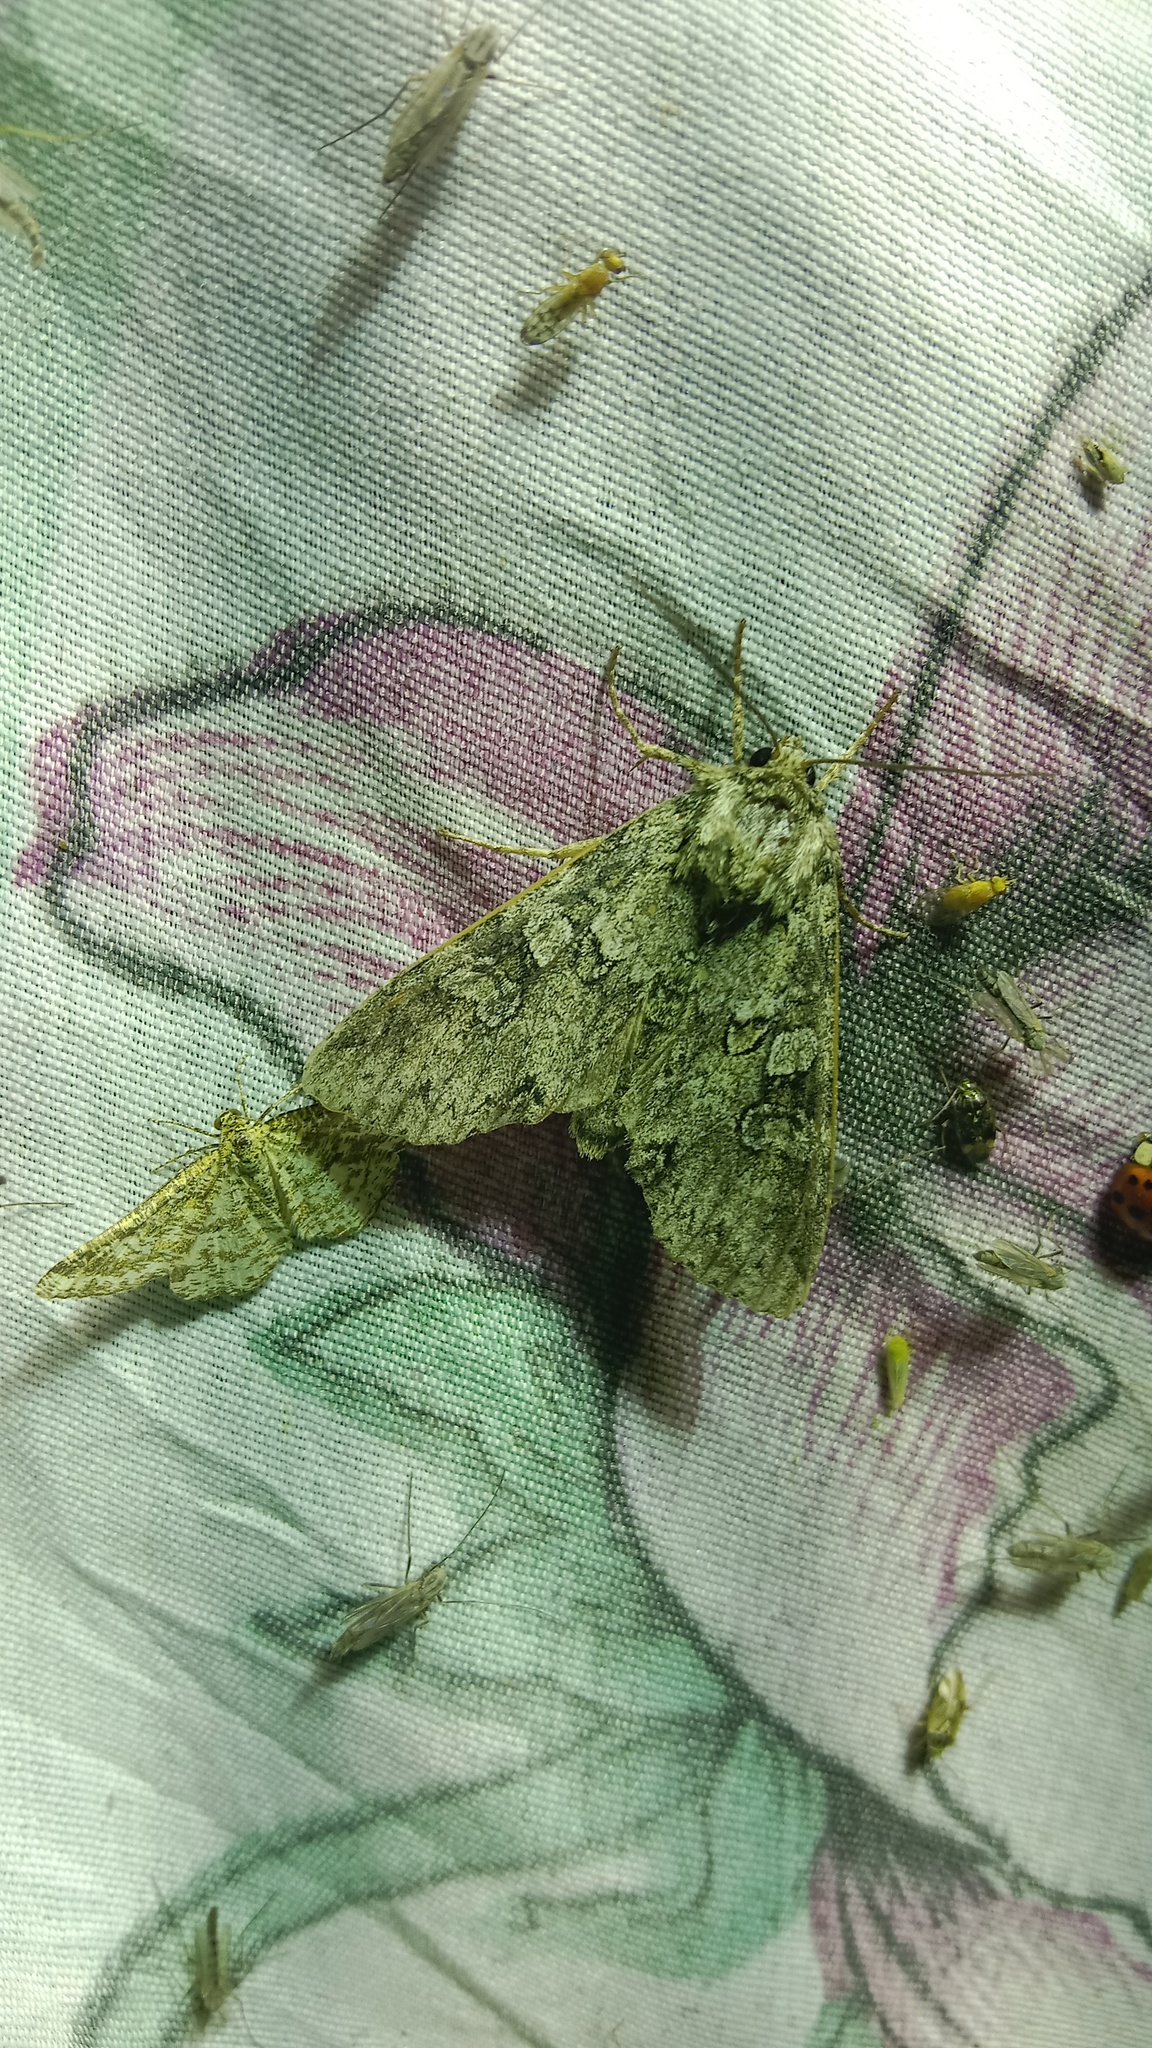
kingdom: Animalia
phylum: Arthropoda
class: Insecta
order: Lepidoptera
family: Noctuidae
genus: Polia
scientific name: Polia nebulosa
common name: Grey arches
